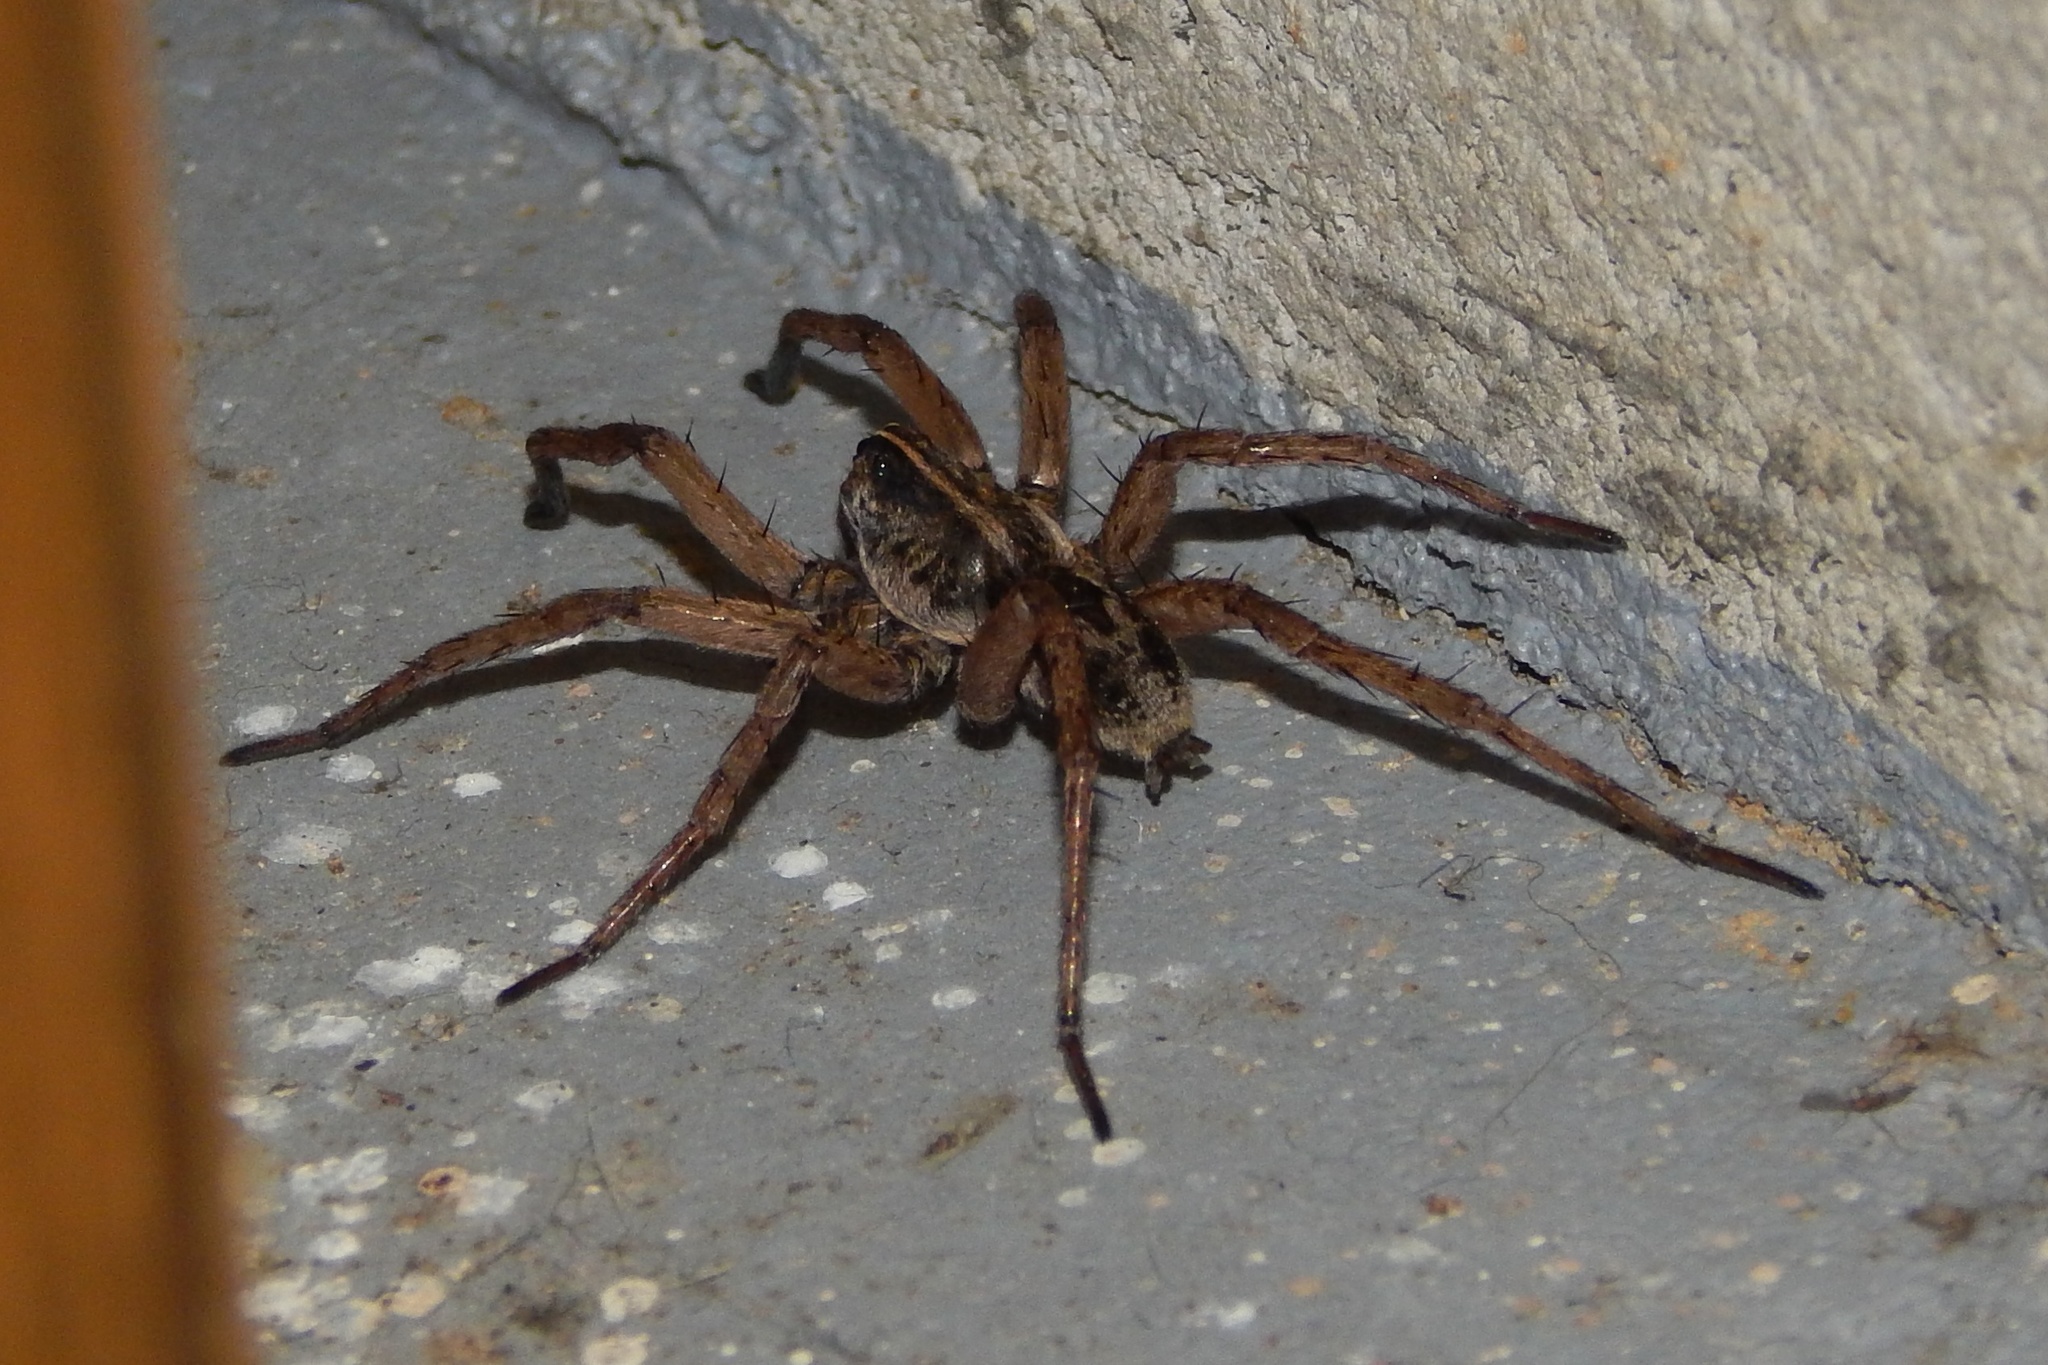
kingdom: Animalia
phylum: Arthropoda
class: Arachnida
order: Araneae
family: Lycosidae
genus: Tigrosa
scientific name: Tigrosa helluo
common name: Wetland giant wolf spider
